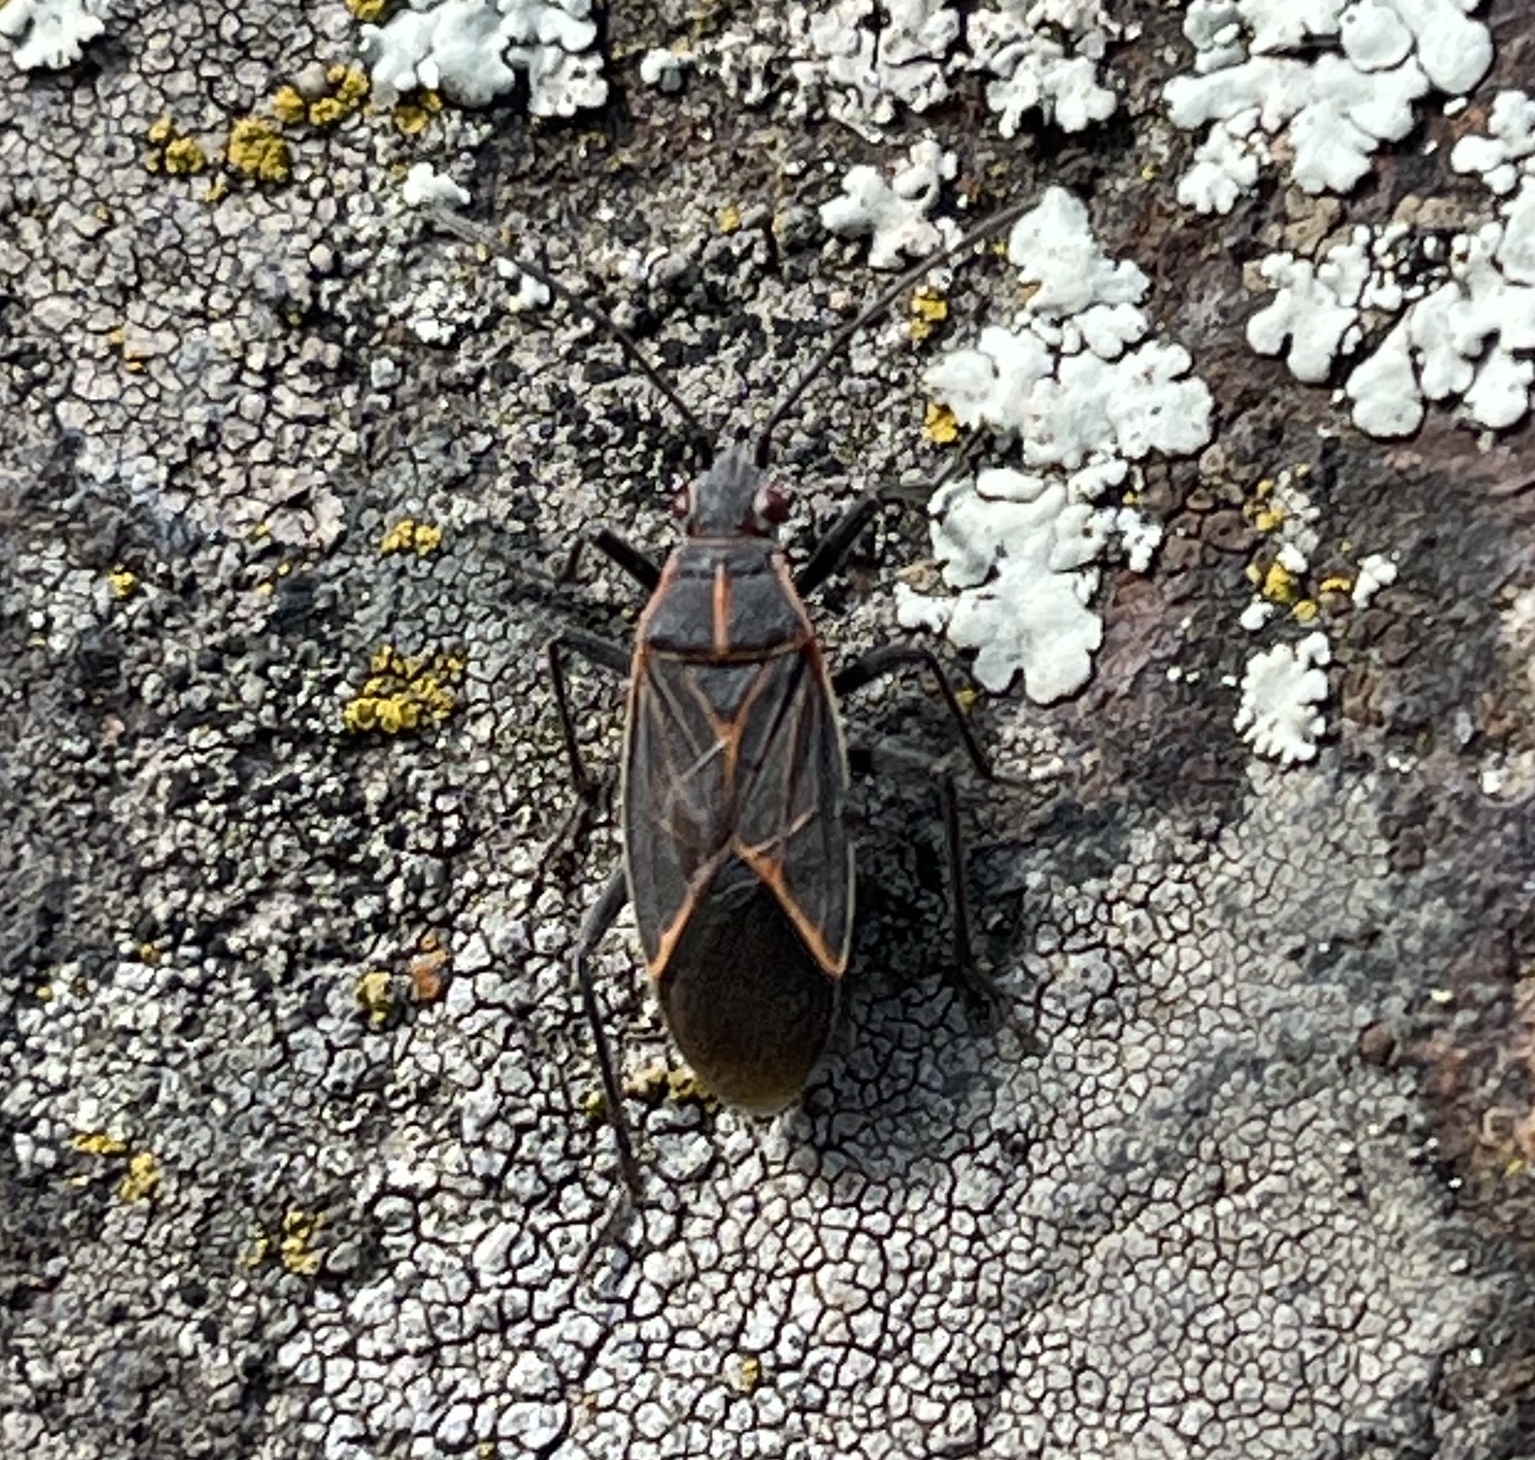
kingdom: Animalia
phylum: Arthropoda
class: Insecta
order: Hemiptera
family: Rhopalidae
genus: Boisea
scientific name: Boisea rubrolineata
